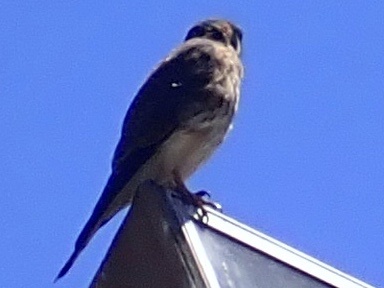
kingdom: Animalia
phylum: Chordata
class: Aves
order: Falconiformes
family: Falconidae
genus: Falco
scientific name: Falco sparverius
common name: American kestrel
